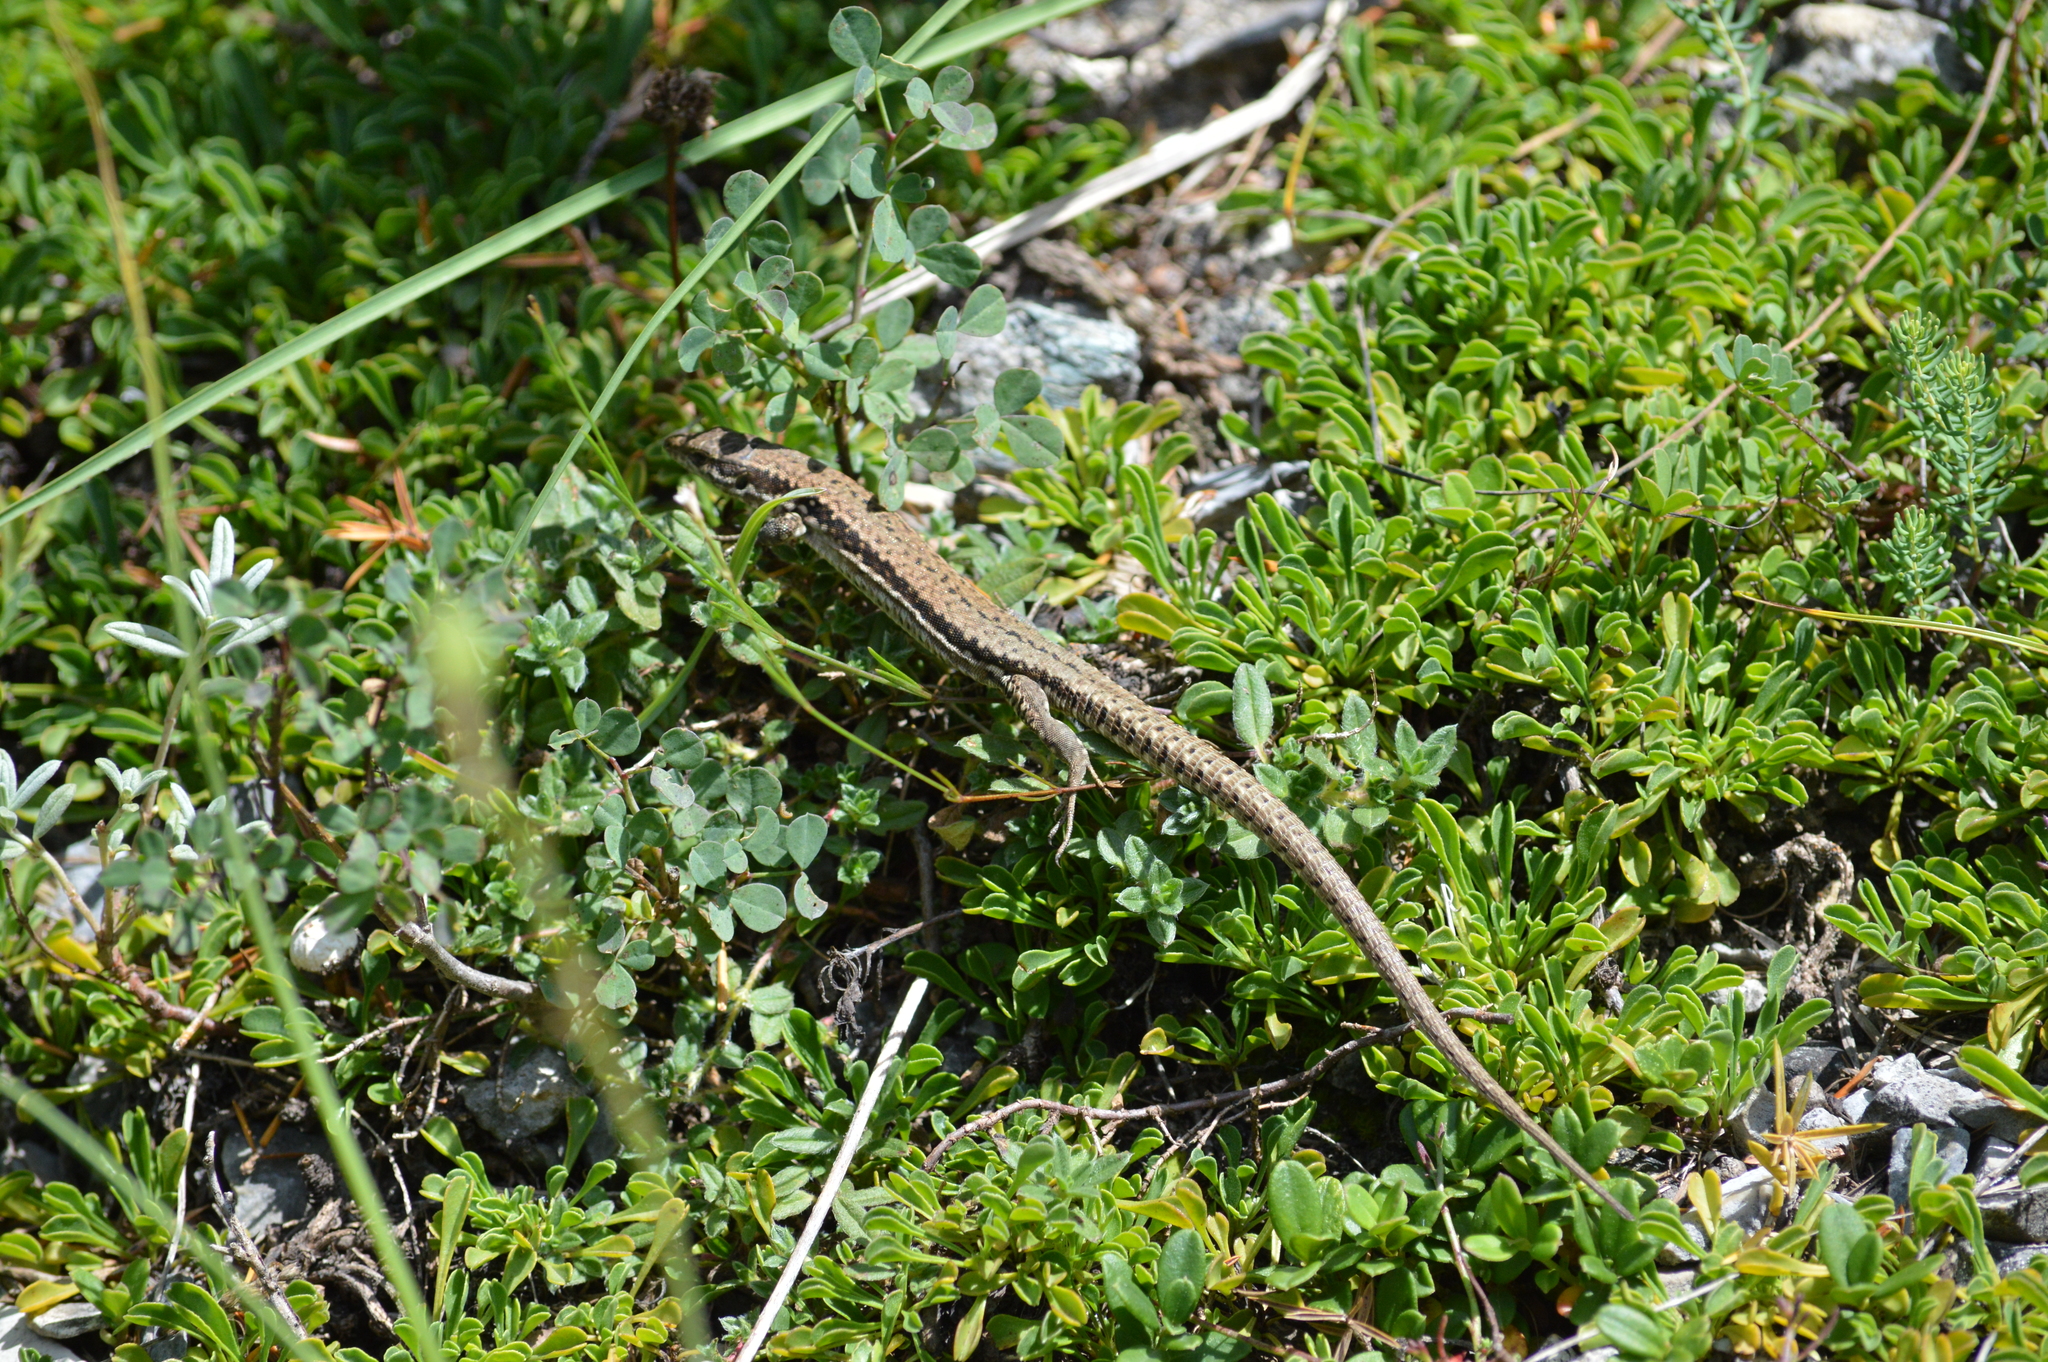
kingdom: Animalia
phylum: Chordata
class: Squamata
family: Lacertidae
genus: Podarcis
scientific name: Podarcis muralis
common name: Common wall lizard
